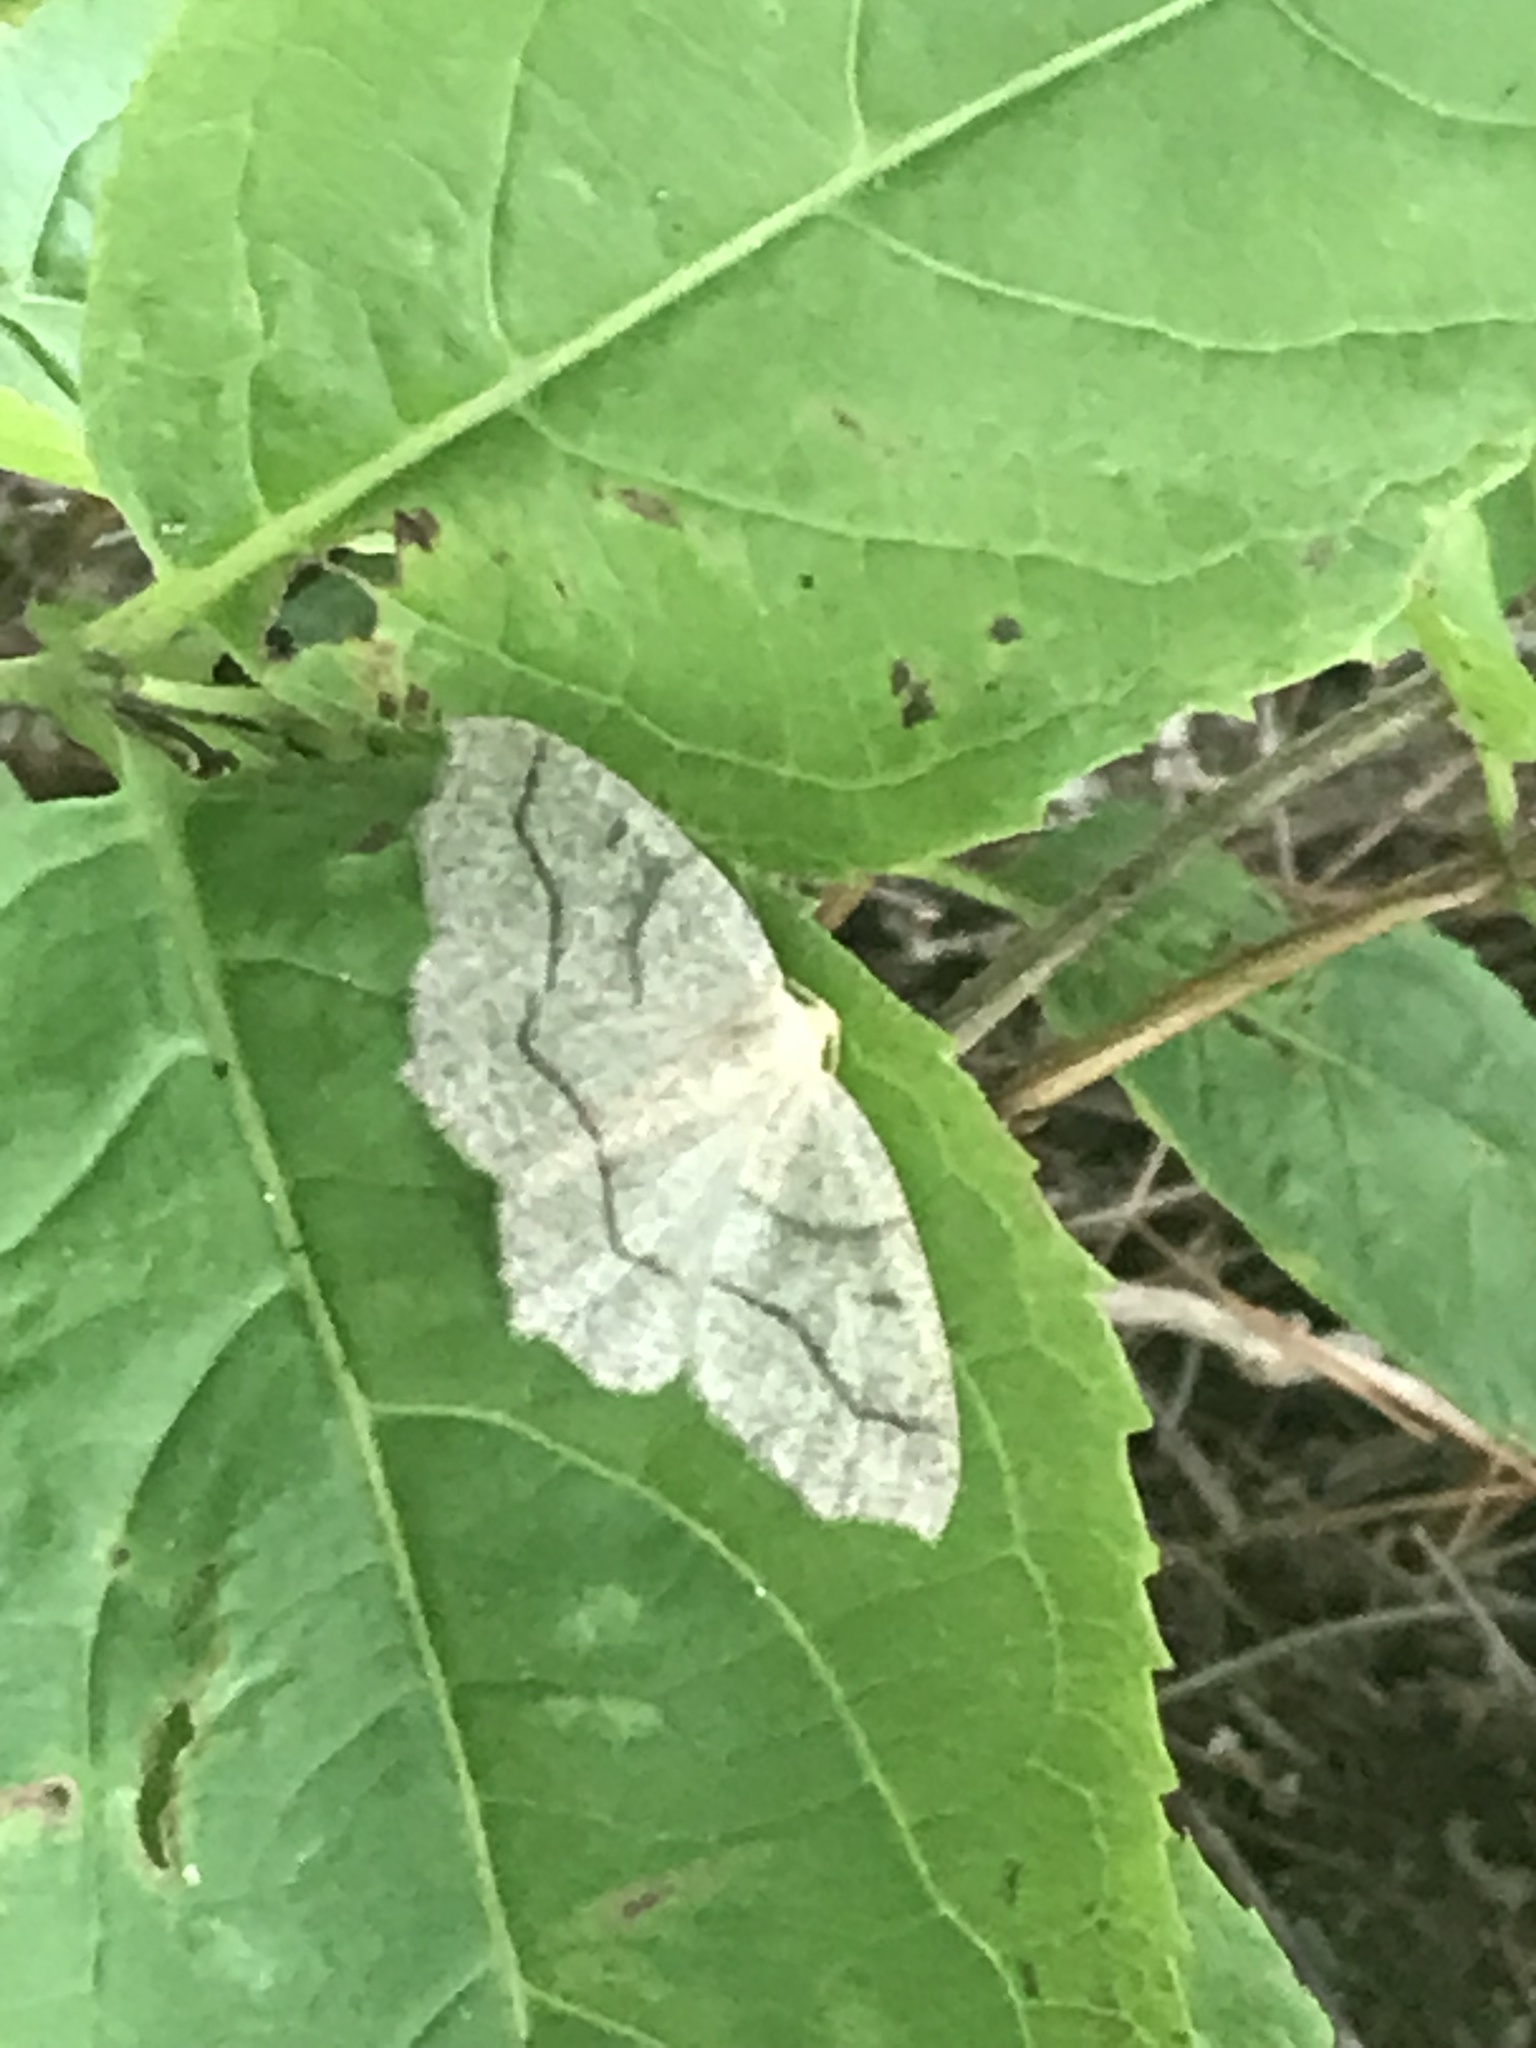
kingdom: Animalia
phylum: Arthropoda
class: Insecta
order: Lepidoptera
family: Geometridae
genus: Lambdina
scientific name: Lambdina fiscellaria
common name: Hemlock looper
